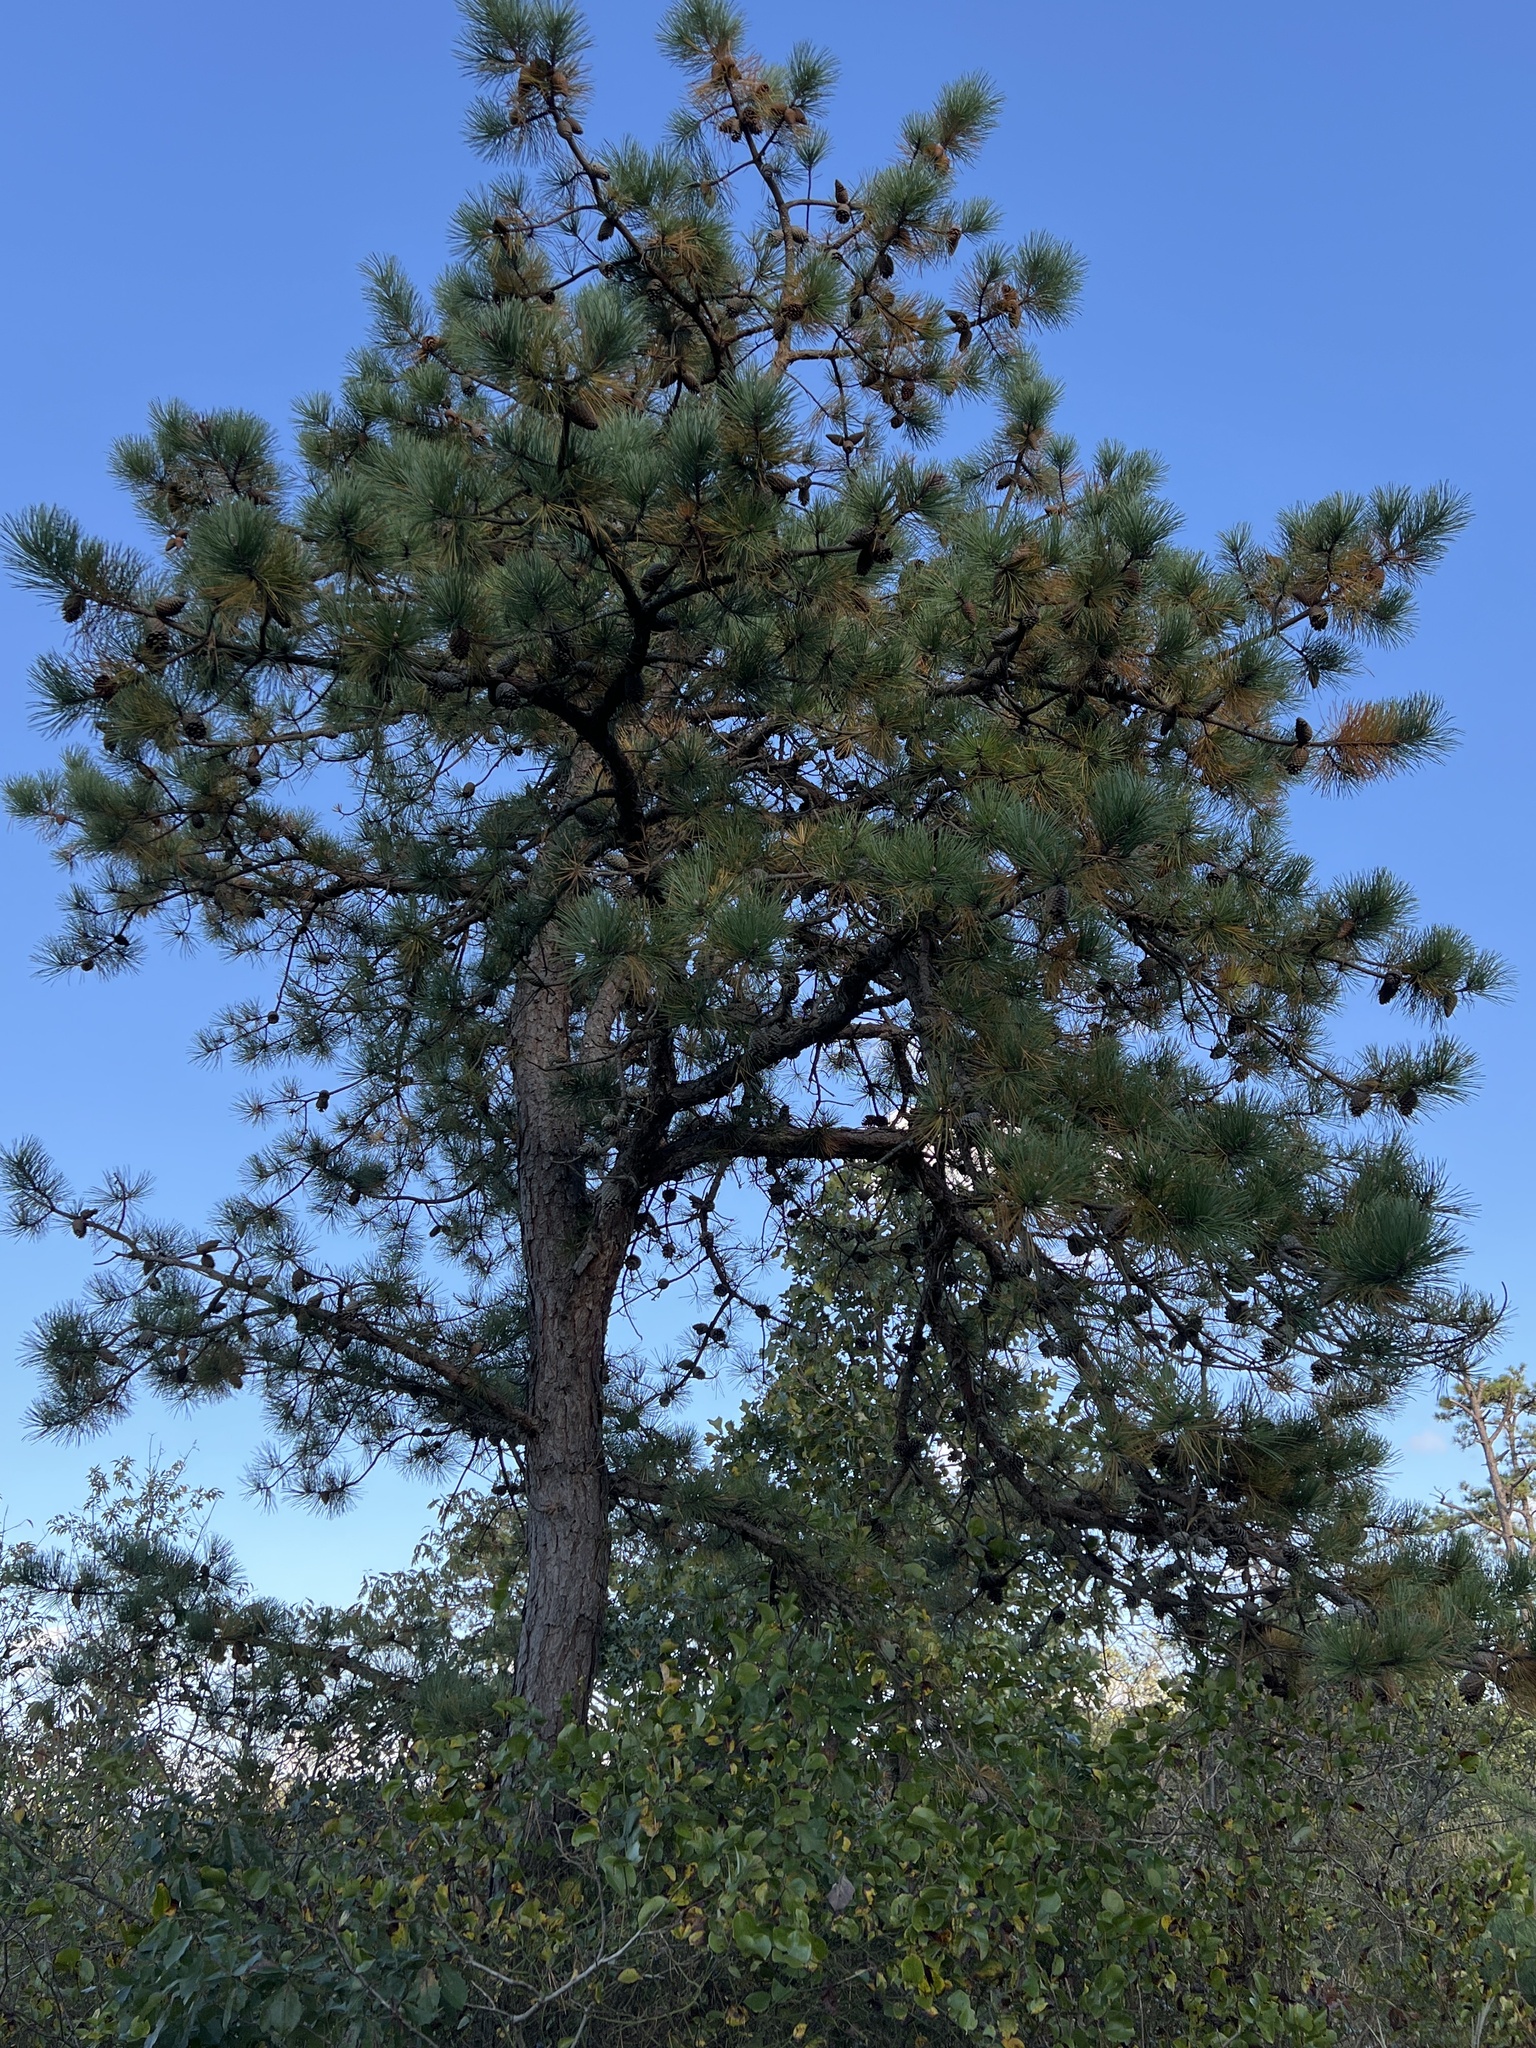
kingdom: Plantae
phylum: Tracheophyta
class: Pinopsida
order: Pinales
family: Pinaceae
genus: Pinus
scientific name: Pinus rigida
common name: Pitch pine
